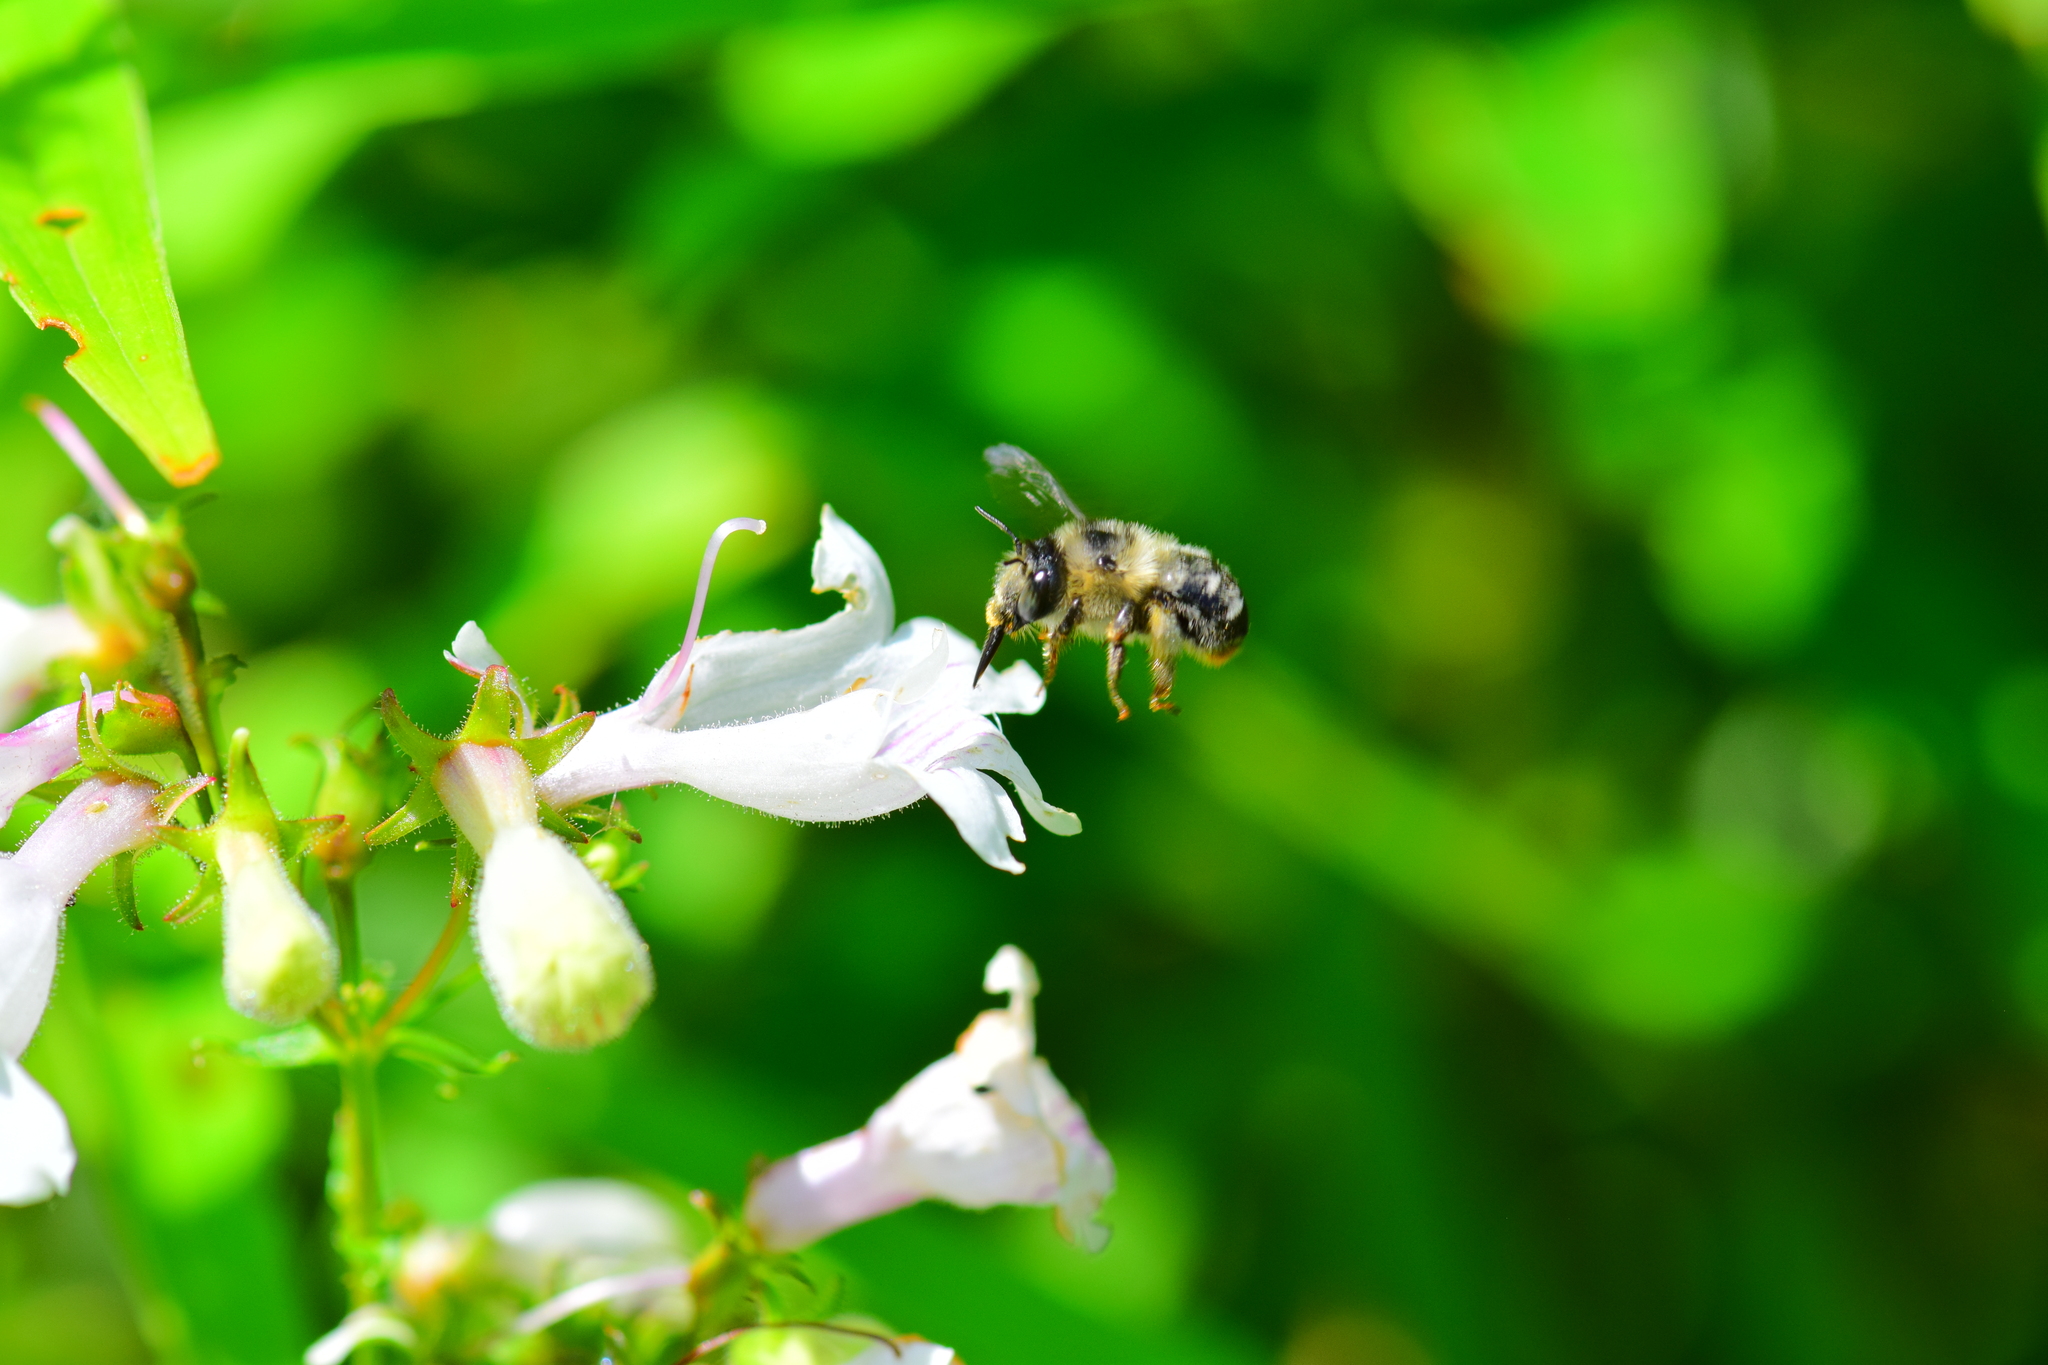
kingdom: Animalia
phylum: Arthropoda
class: Insecta
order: Hymenoptera
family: Apidae
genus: Anthophora
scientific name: Anthophora terminalis
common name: Orange-tipped wood-digger bee
